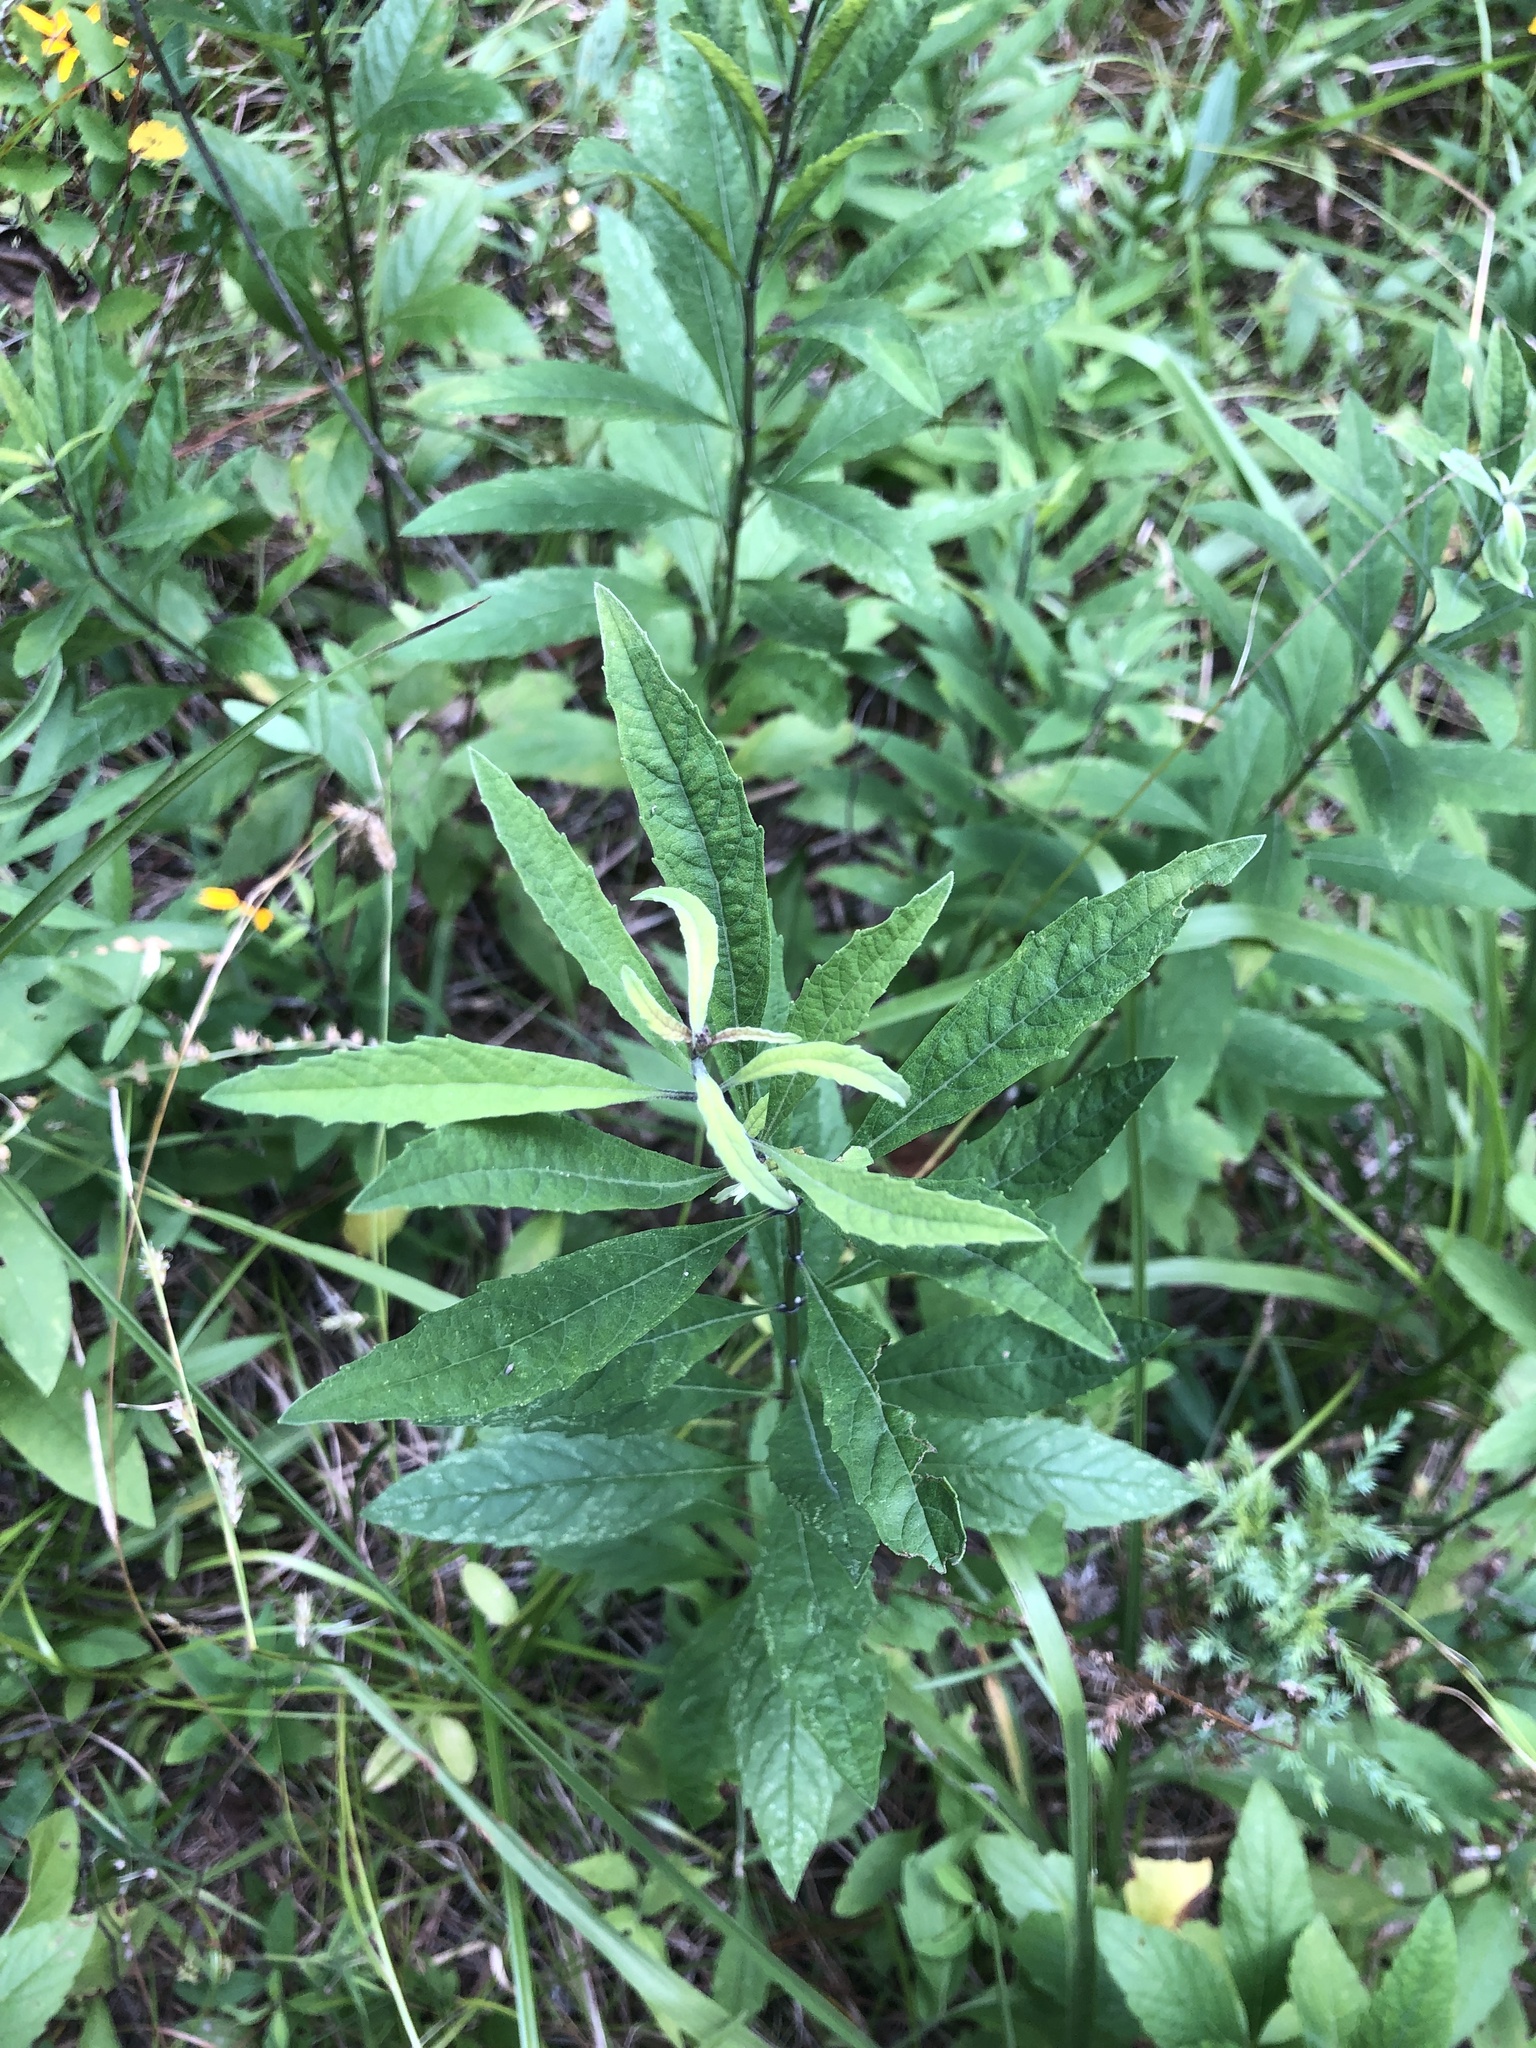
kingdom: Plantae
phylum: Tracheophyta
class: Magnoliopsida
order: Lamiales
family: Lamiaceae
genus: Salvia
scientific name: Salvia azurea
